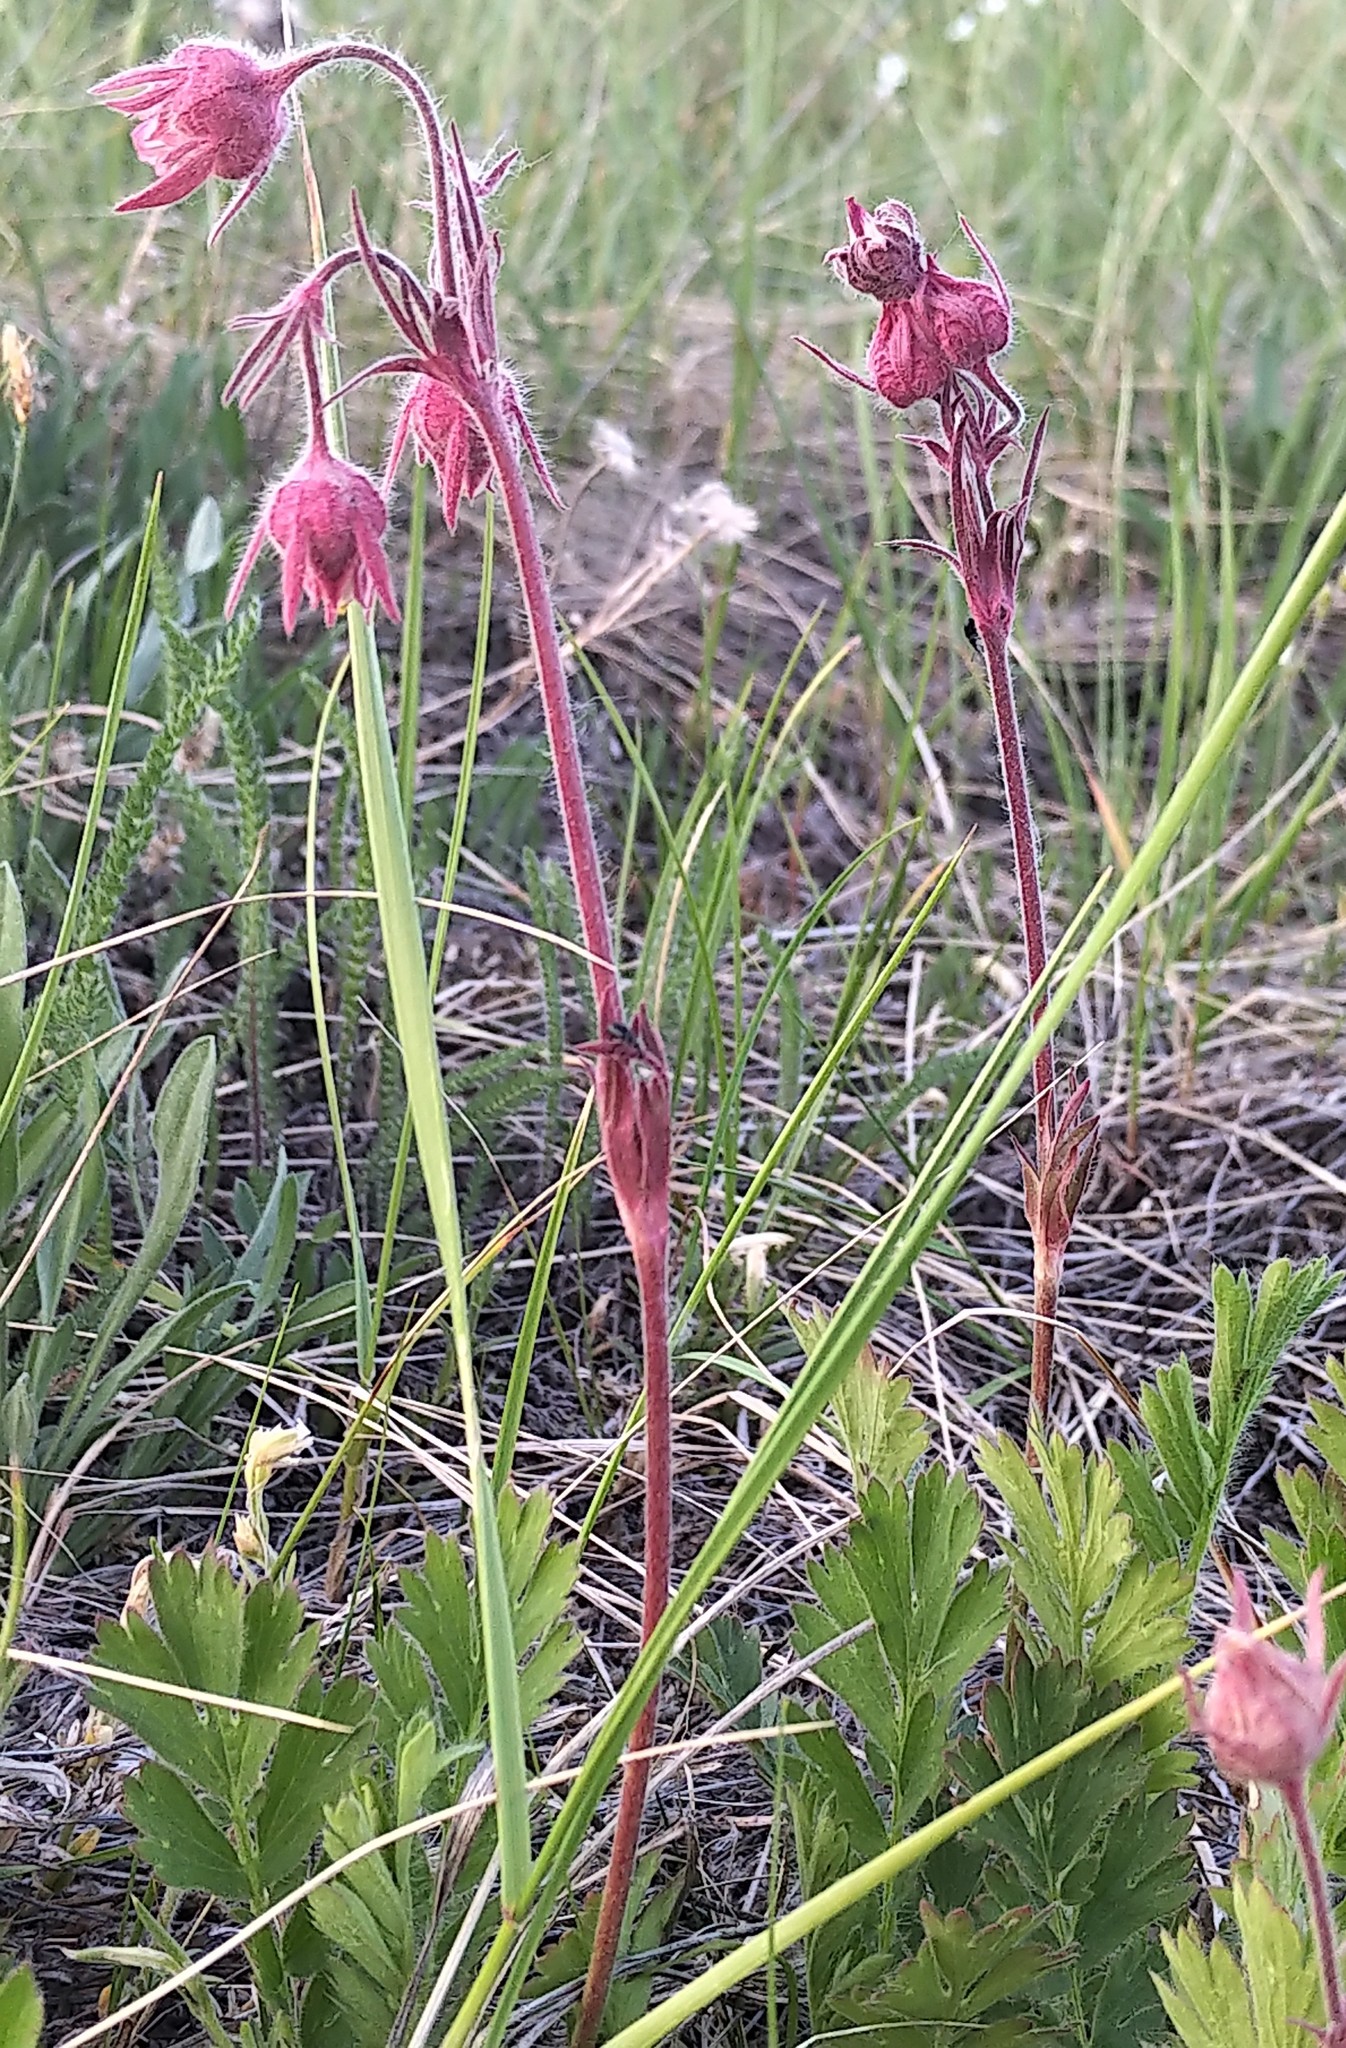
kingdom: Plantae
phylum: Tracheophyta
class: Magnoliopsida
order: Rosales
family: Rosaceae
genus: Geum
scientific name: Geum triflorum
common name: Old man's whiskers
